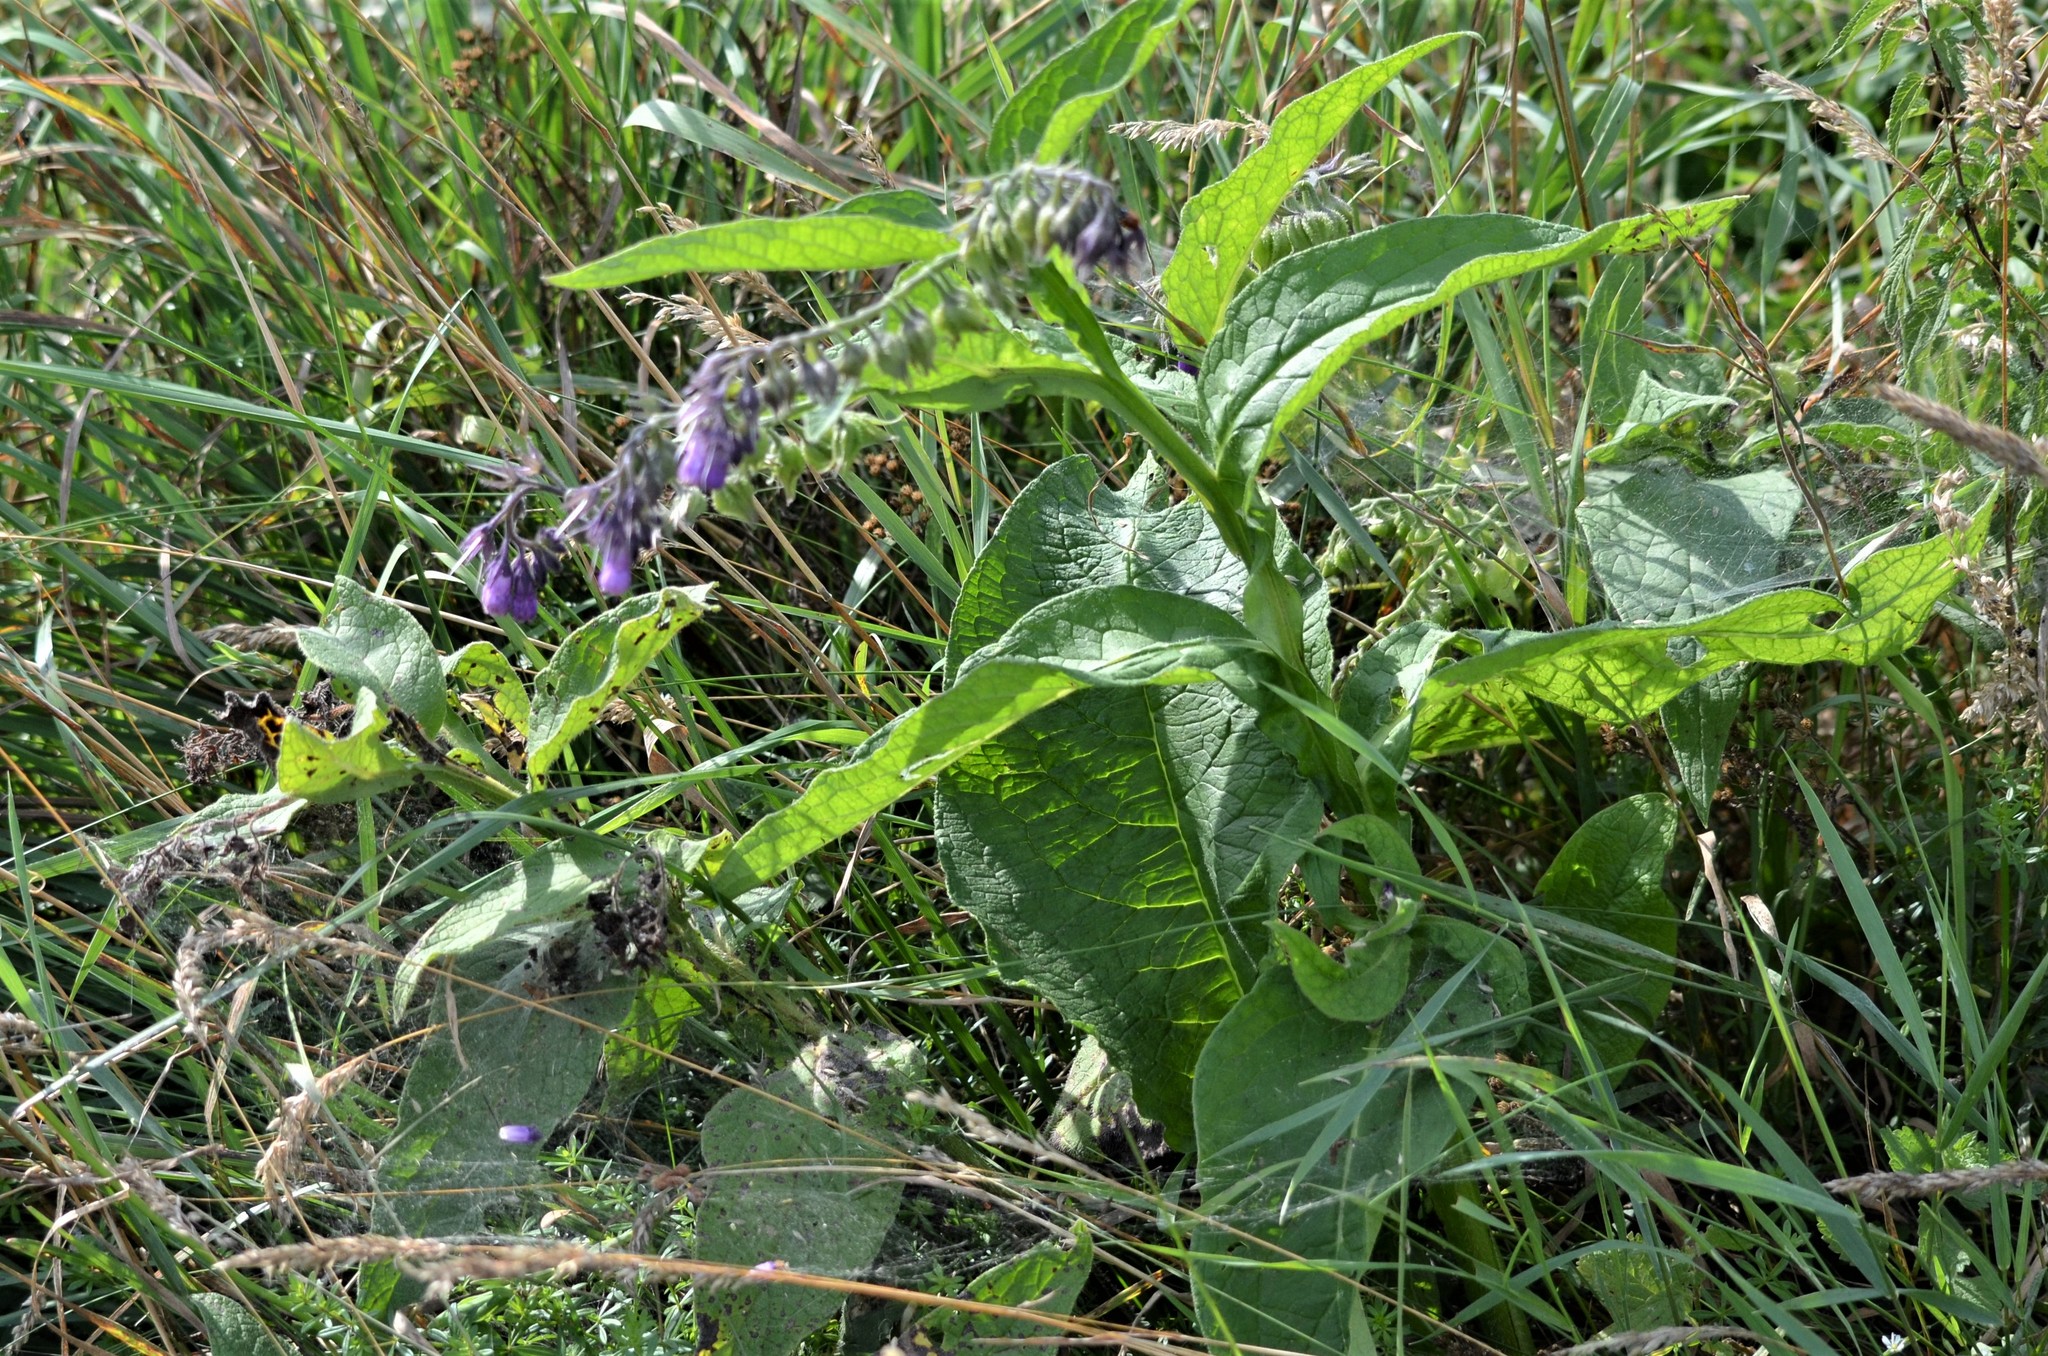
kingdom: Plantae
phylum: Tracheophyta
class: Magnoliopsida
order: Boraginales
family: Boraginaceae
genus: Symphytum
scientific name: Symphytum officinale
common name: Common comfrey
